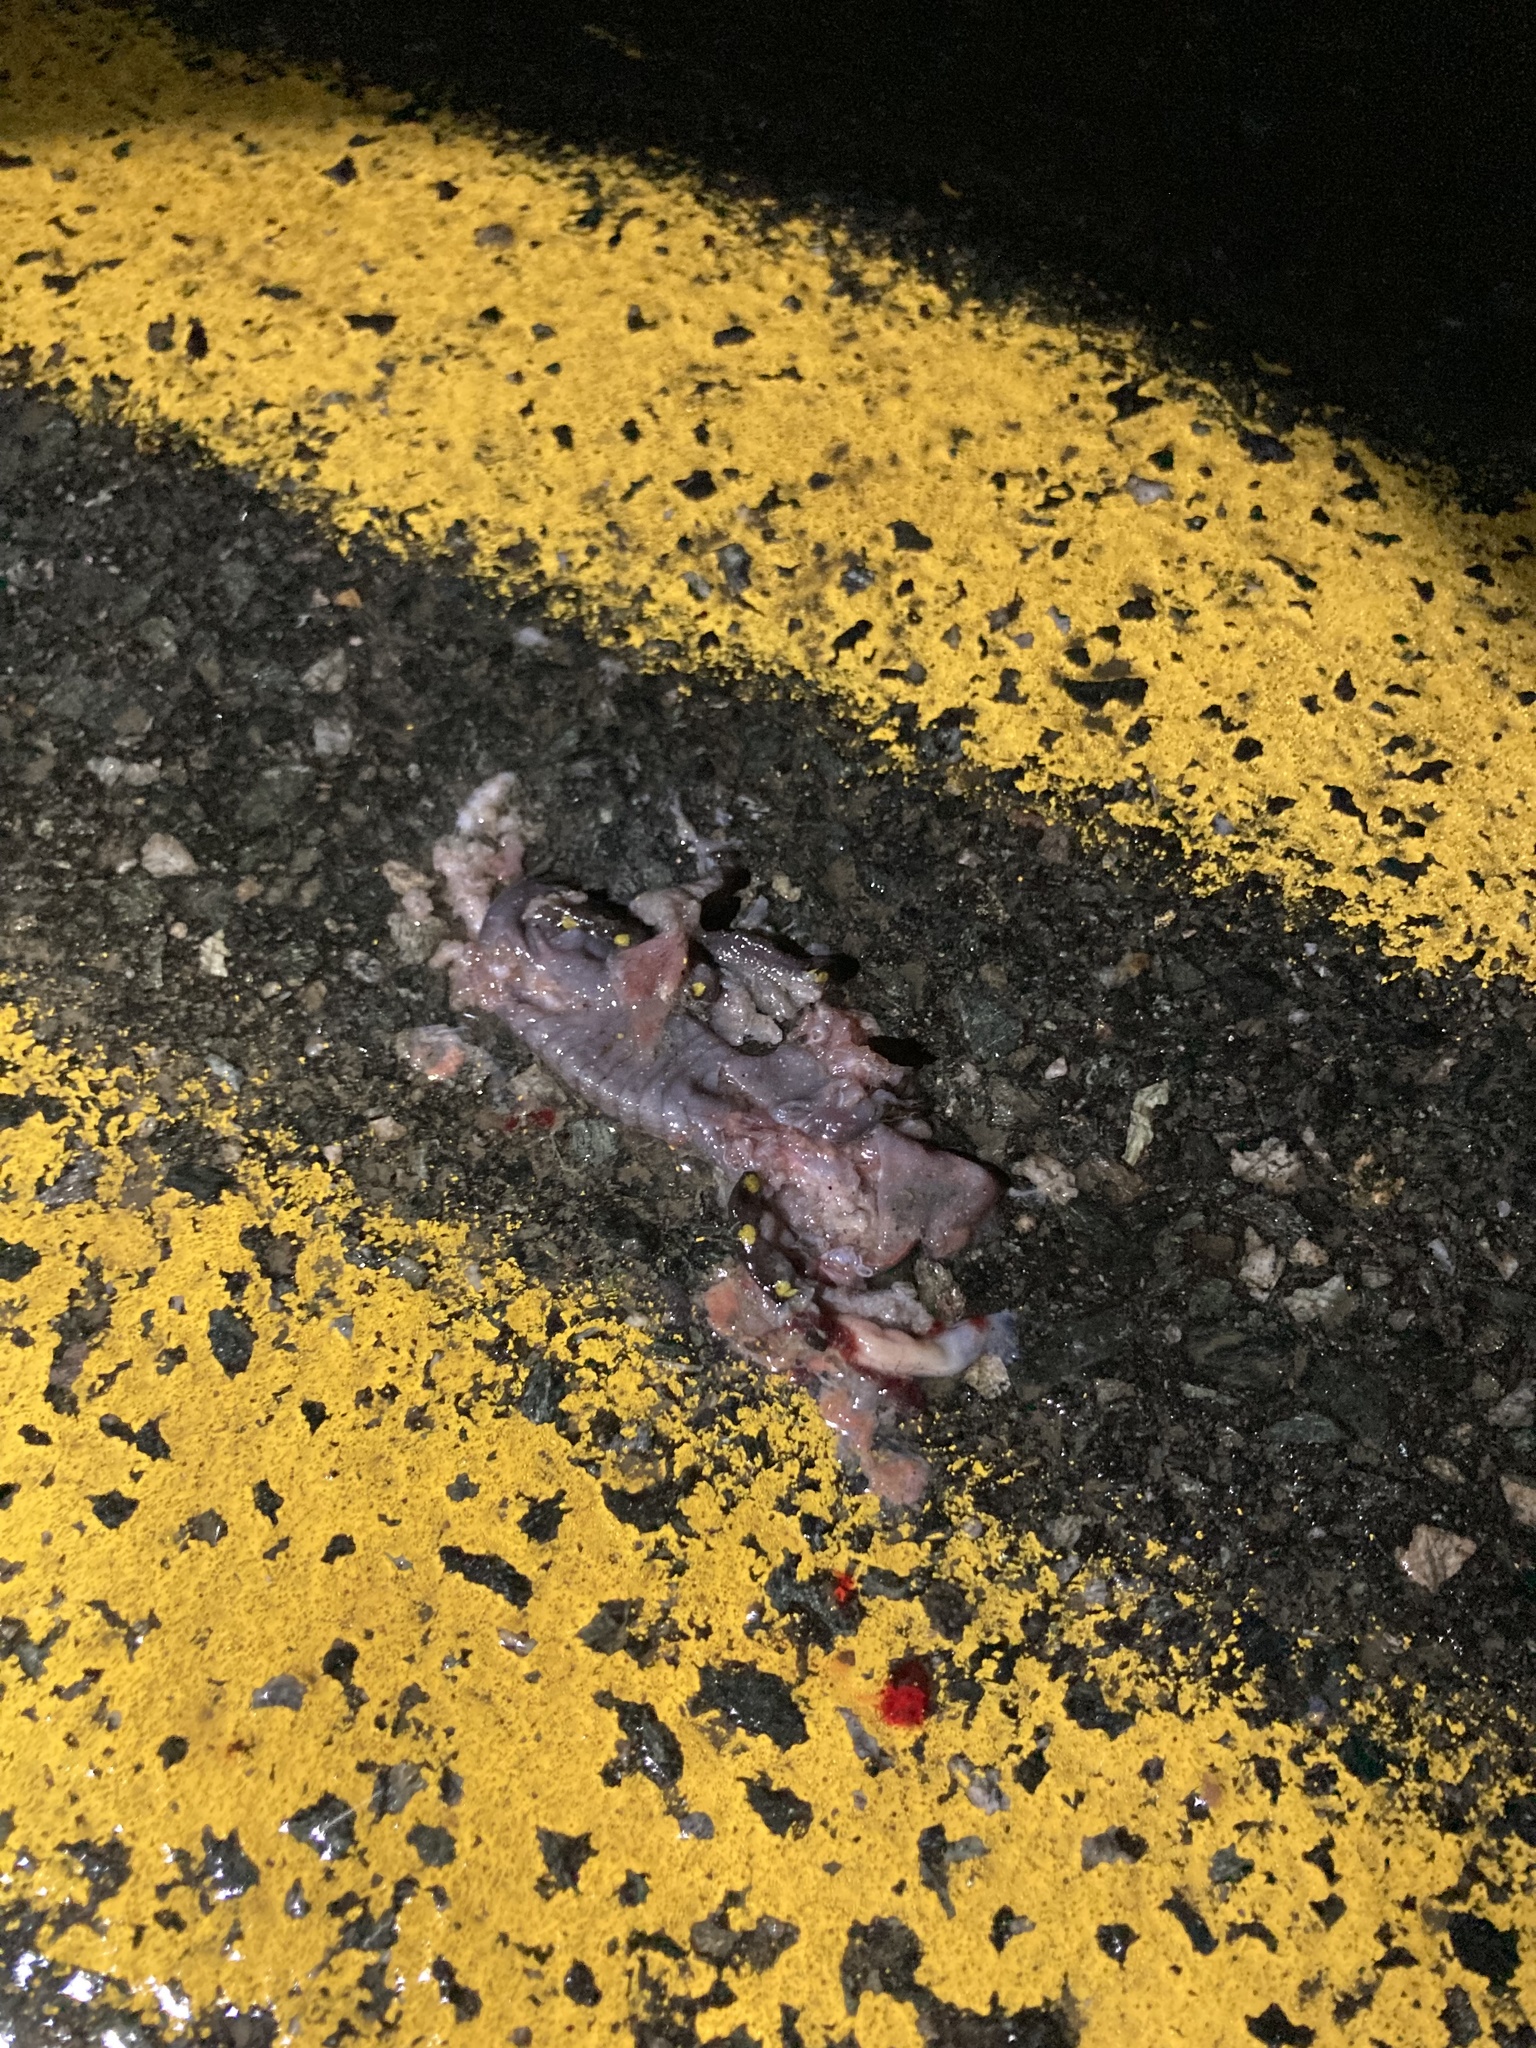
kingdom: Animalia
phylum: Chordata
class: Amphibia
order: Caudata
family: Ambystomatidae
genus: Ambystoma
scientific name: Ambystoma maculatum
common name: Spotted salamander
